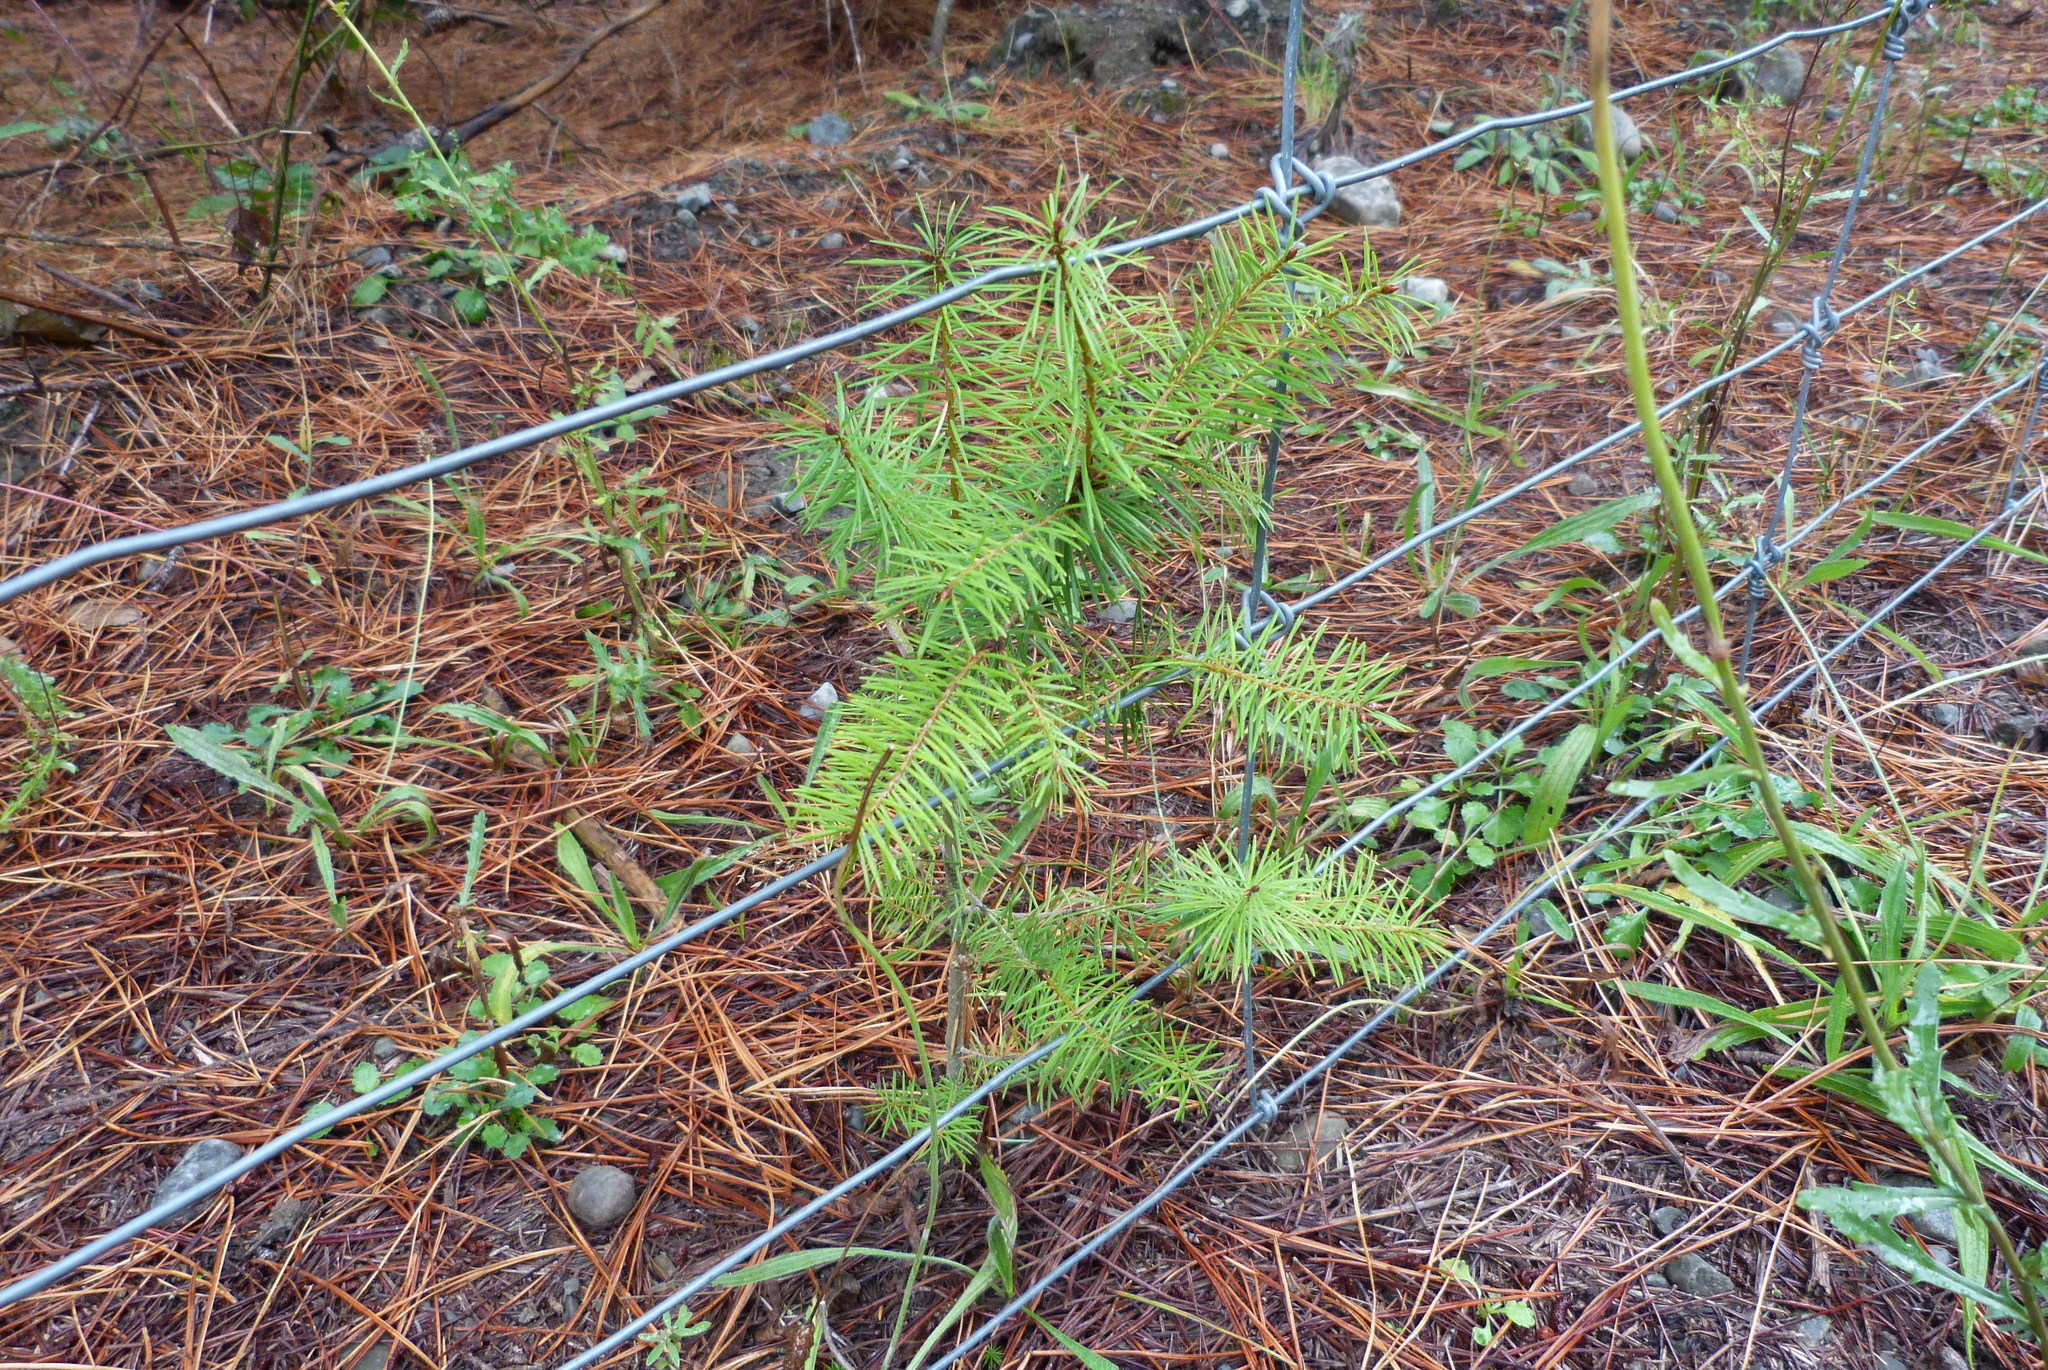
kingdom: Plantae
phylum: Tracheophyta
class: Pinopsida
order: Pinales
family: Pinaceae
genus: Pseudotsuga
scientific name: Pseudotsuga menziesii
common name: Douglas fir
